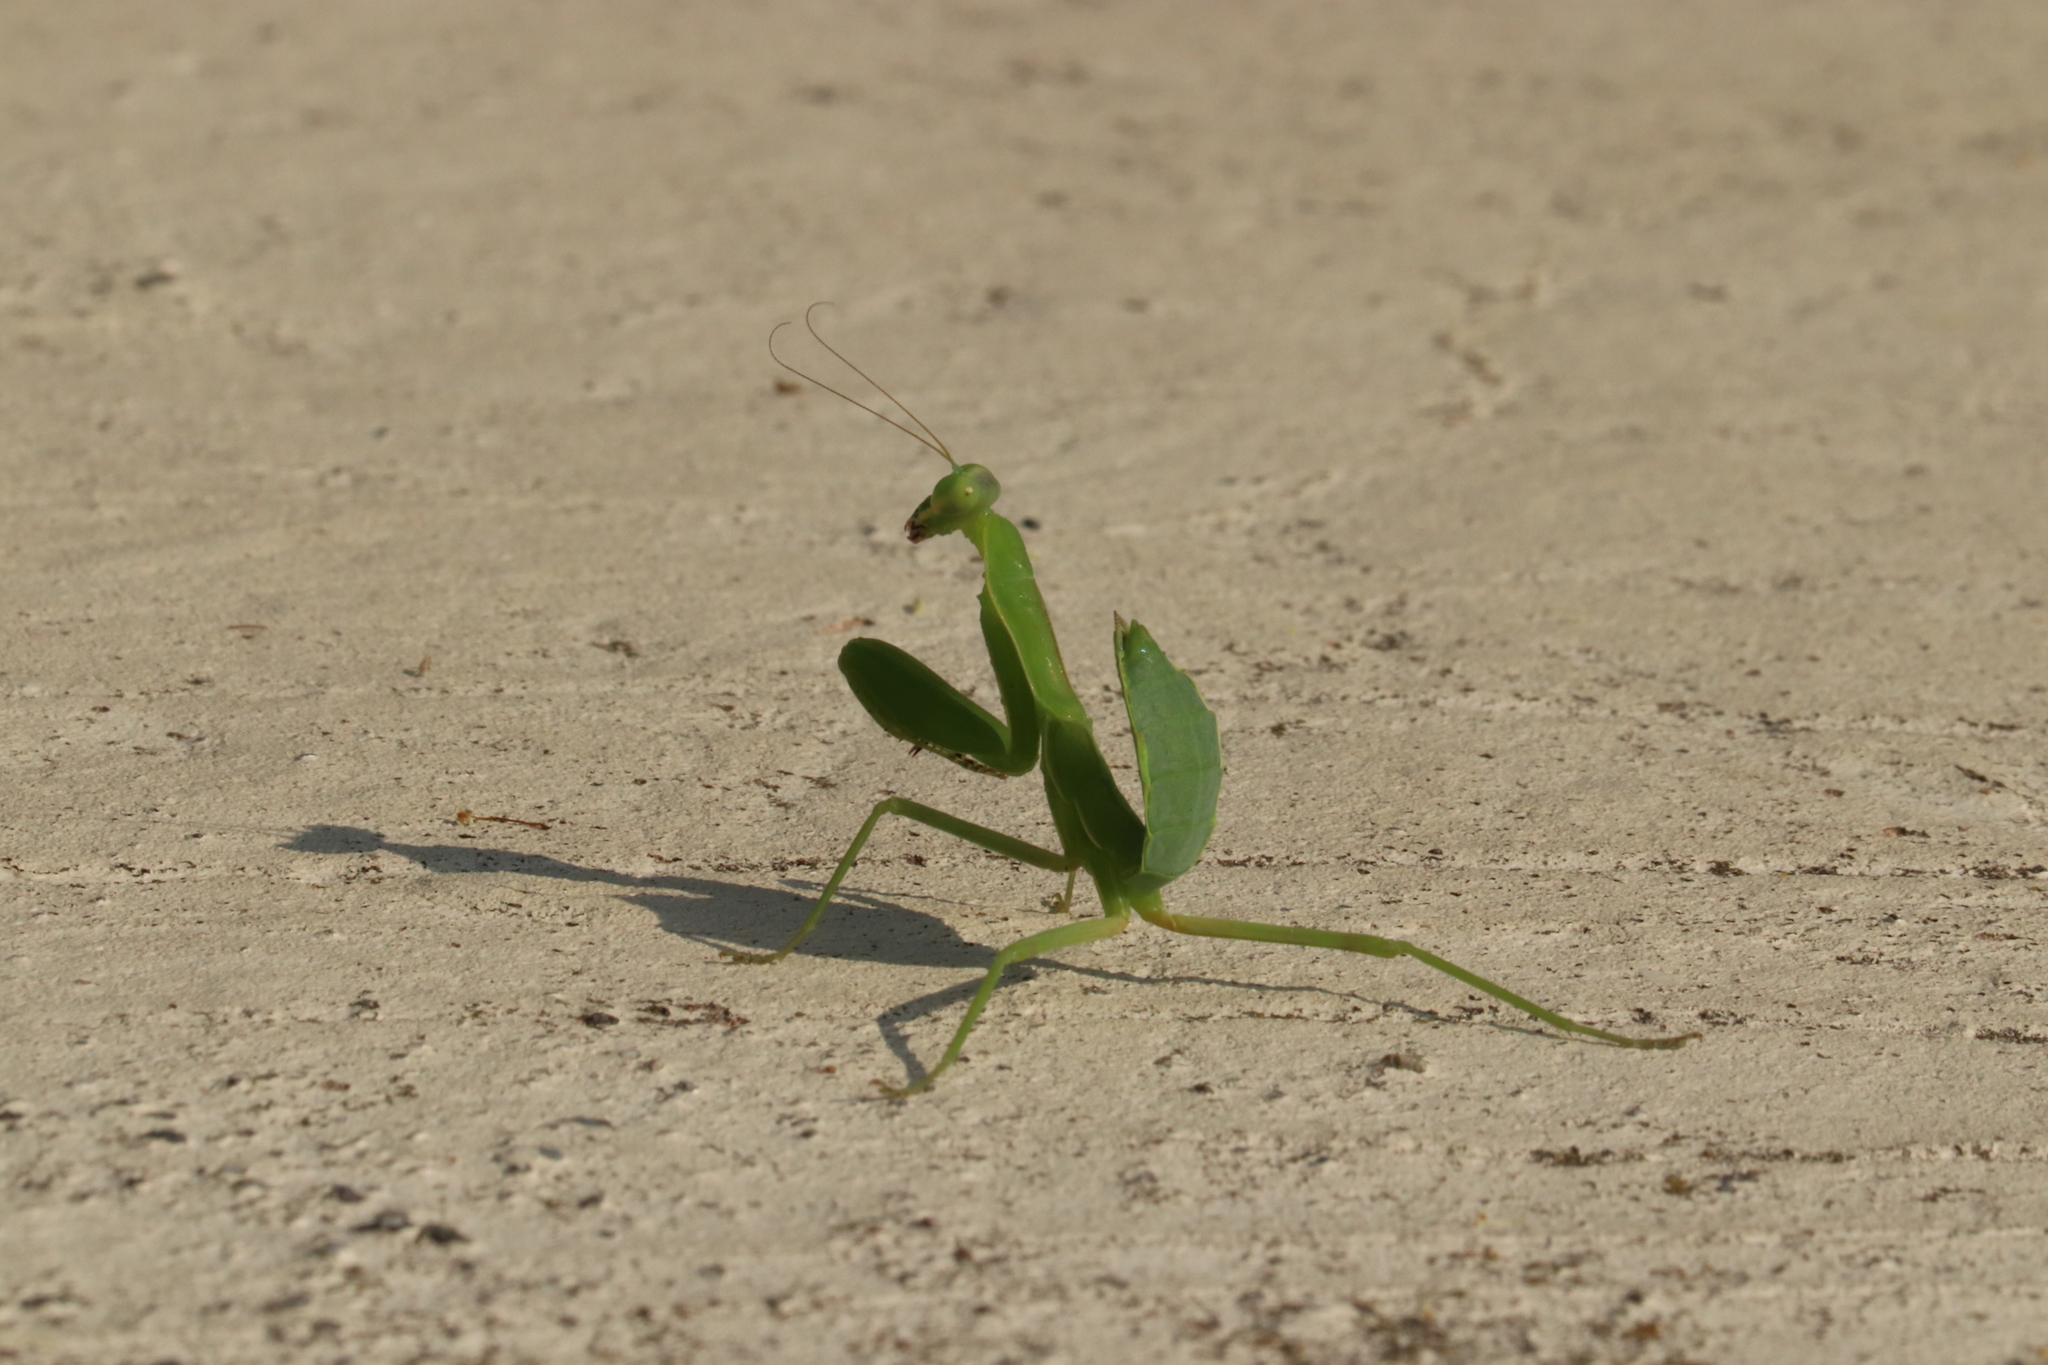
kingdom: Animalia
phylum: Arthropoda
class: Insecta
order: Mantodea
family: Mantidae
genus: Hierodula
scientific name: Hierodula patellifera
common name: Asian mantis
